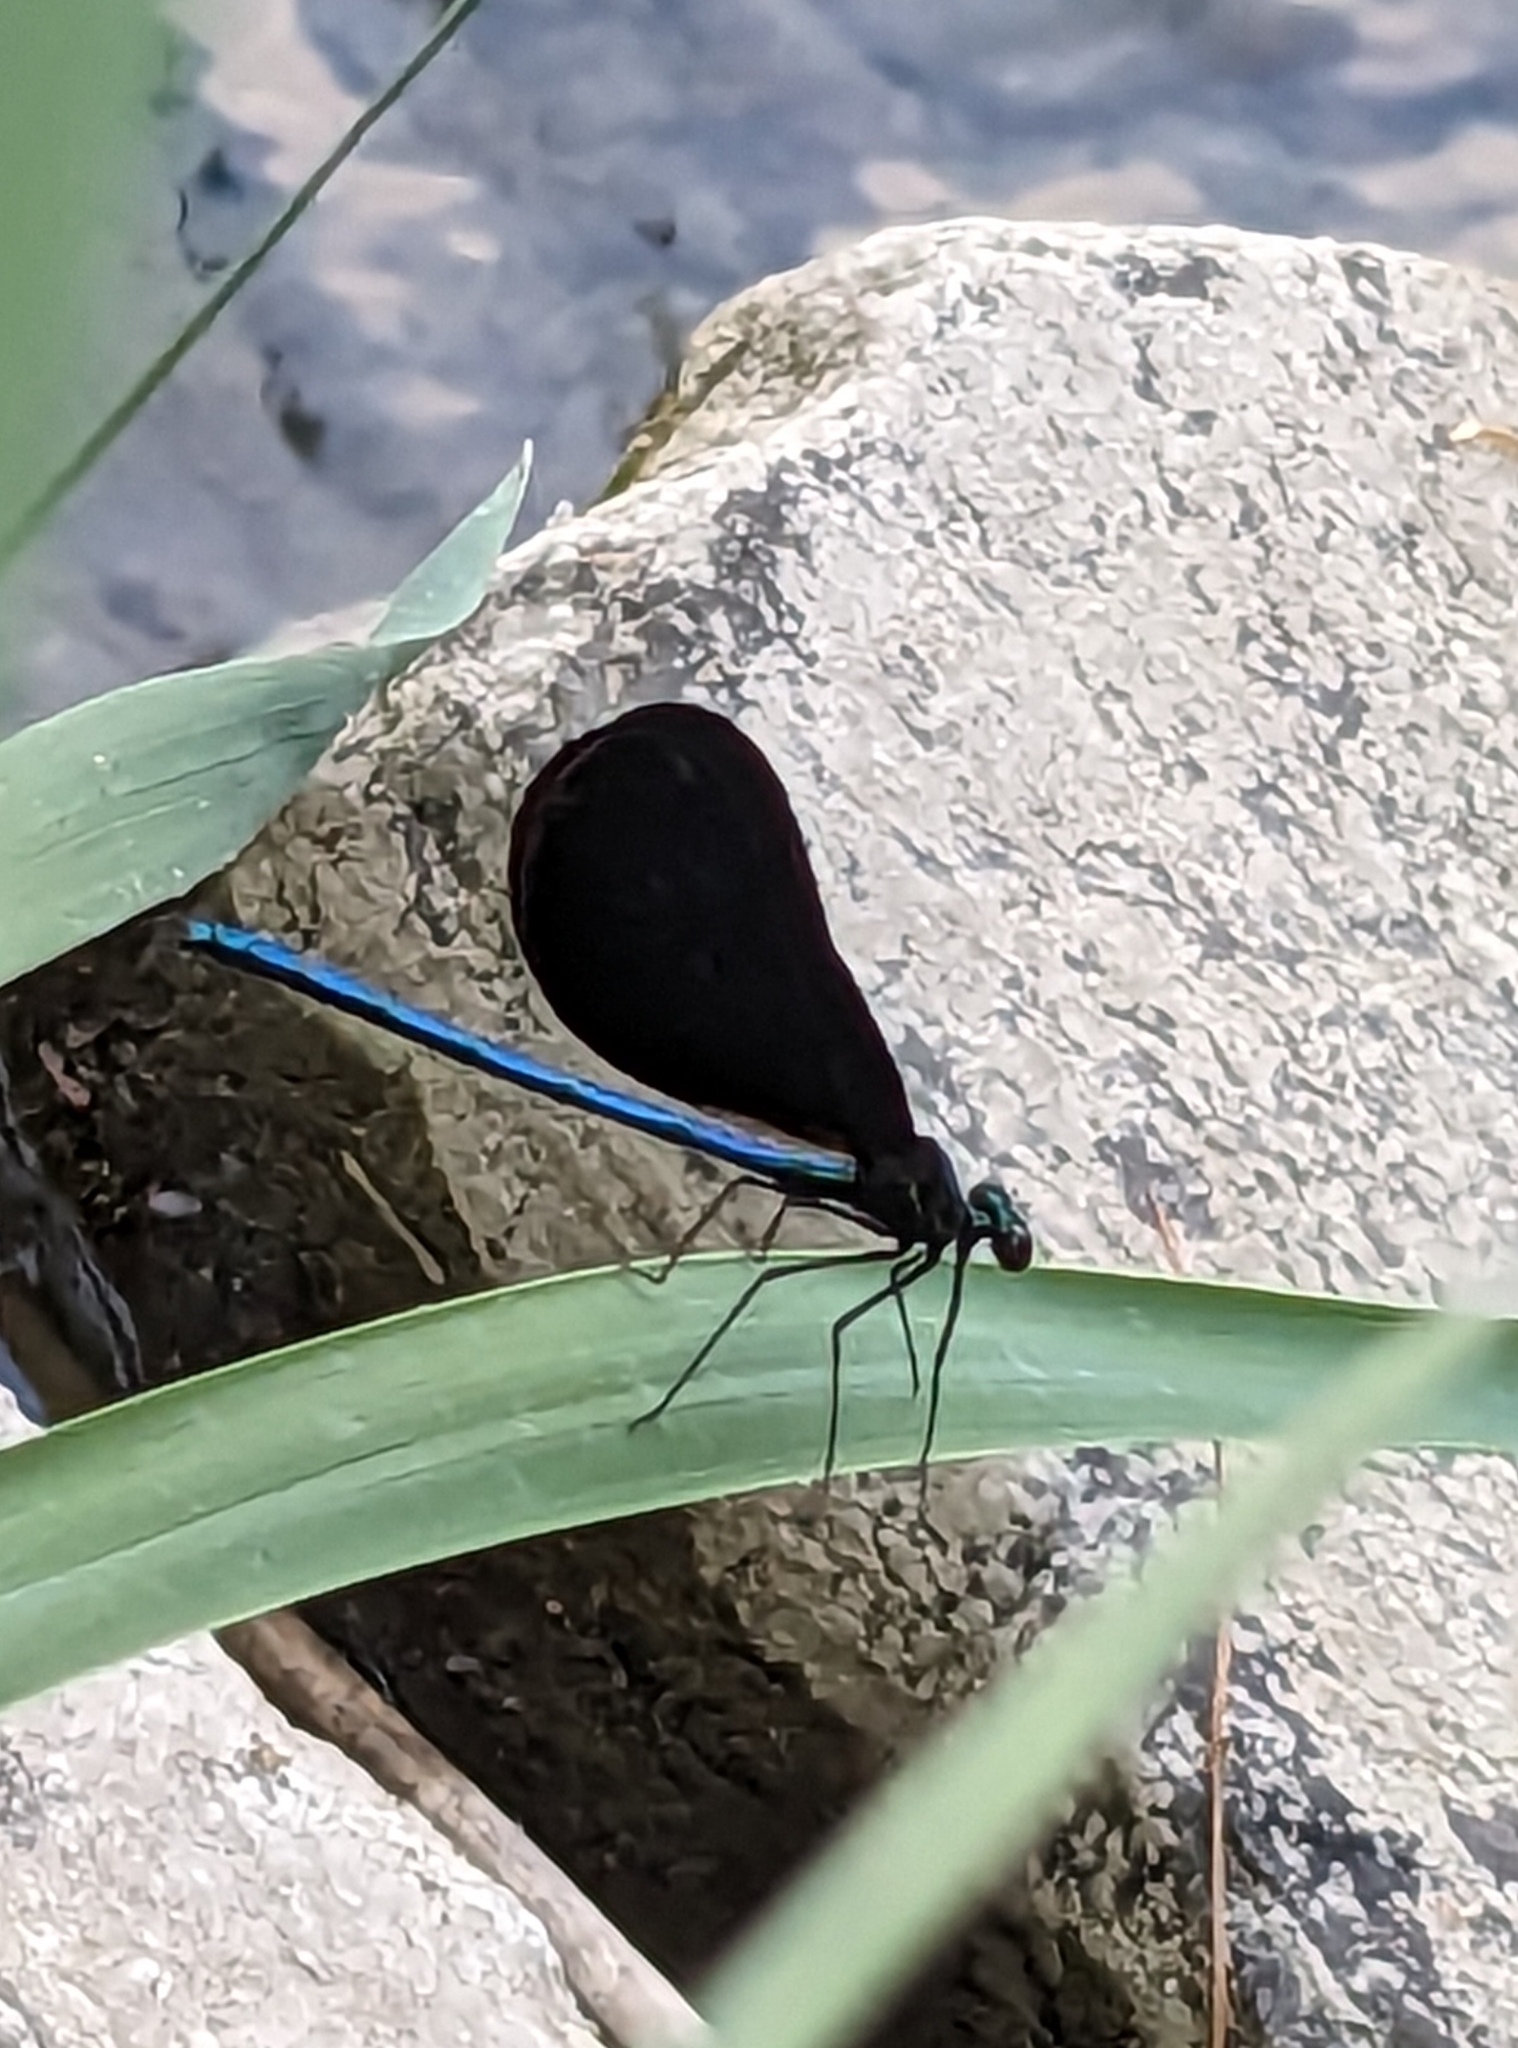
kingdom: Animalia
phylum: Arthropoda
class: Insecta
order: Odonata
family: Calopterygidae
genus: Calopteryx
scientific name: Calopteryx maculata
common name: Ebony jewelwing
